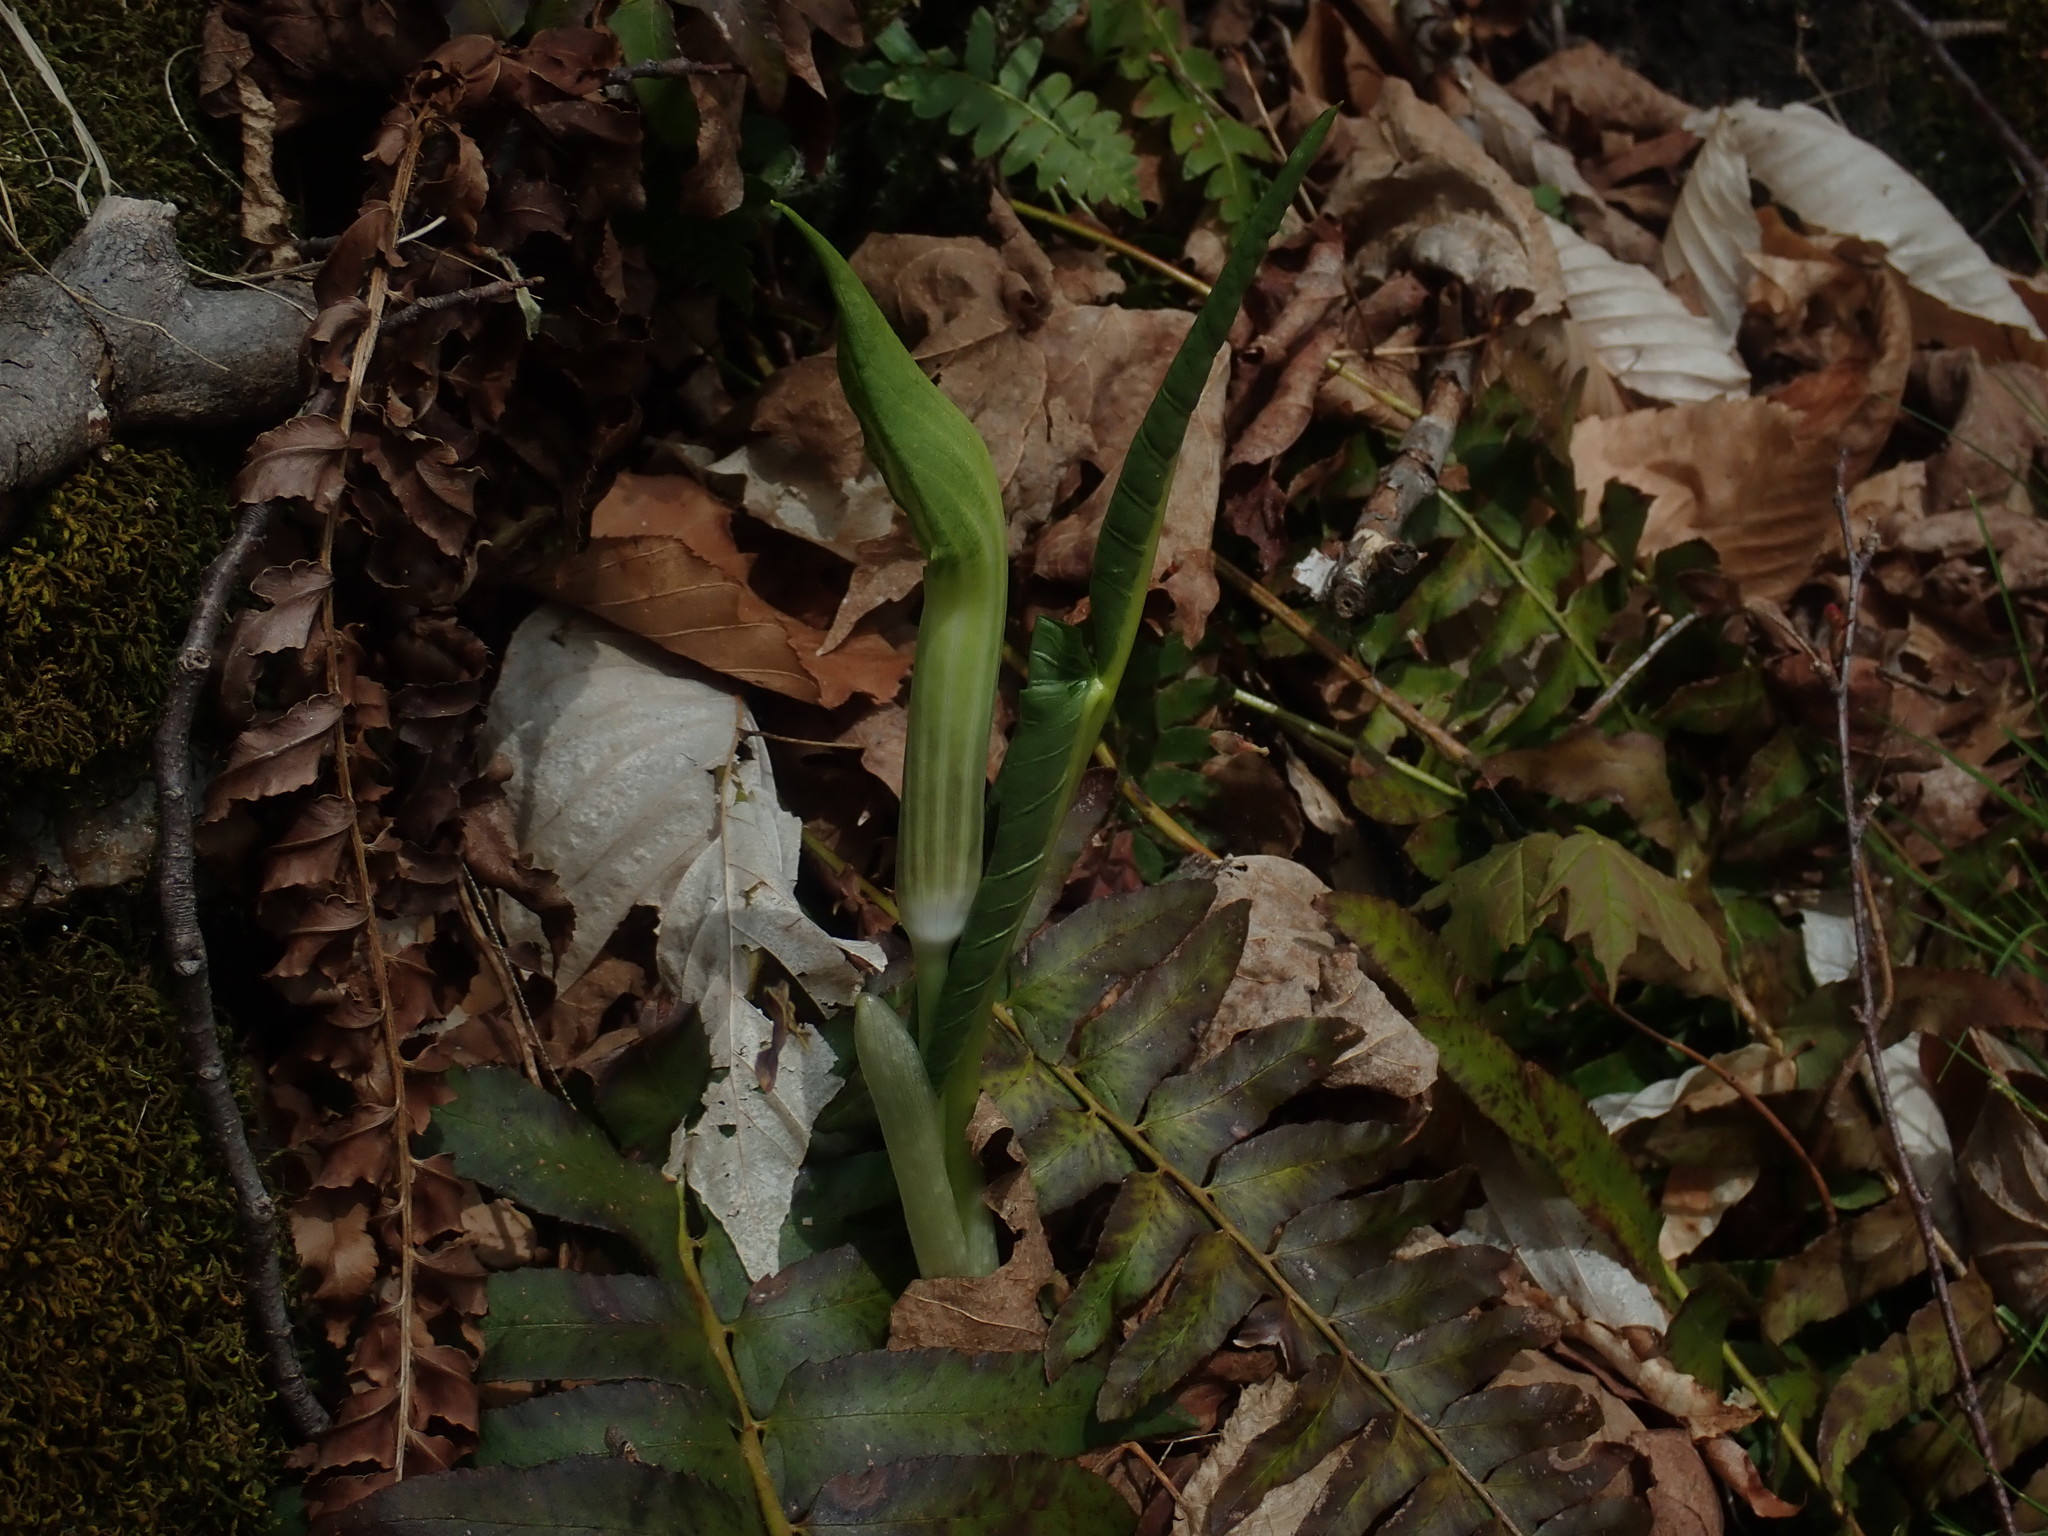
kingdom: Plantae
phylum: Tracheophyta
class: Liliopsida
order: Alismatales
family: Araceae
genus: Arisaema
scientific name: Arisaema triphyllum
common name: Jack-in-the-pulpit
